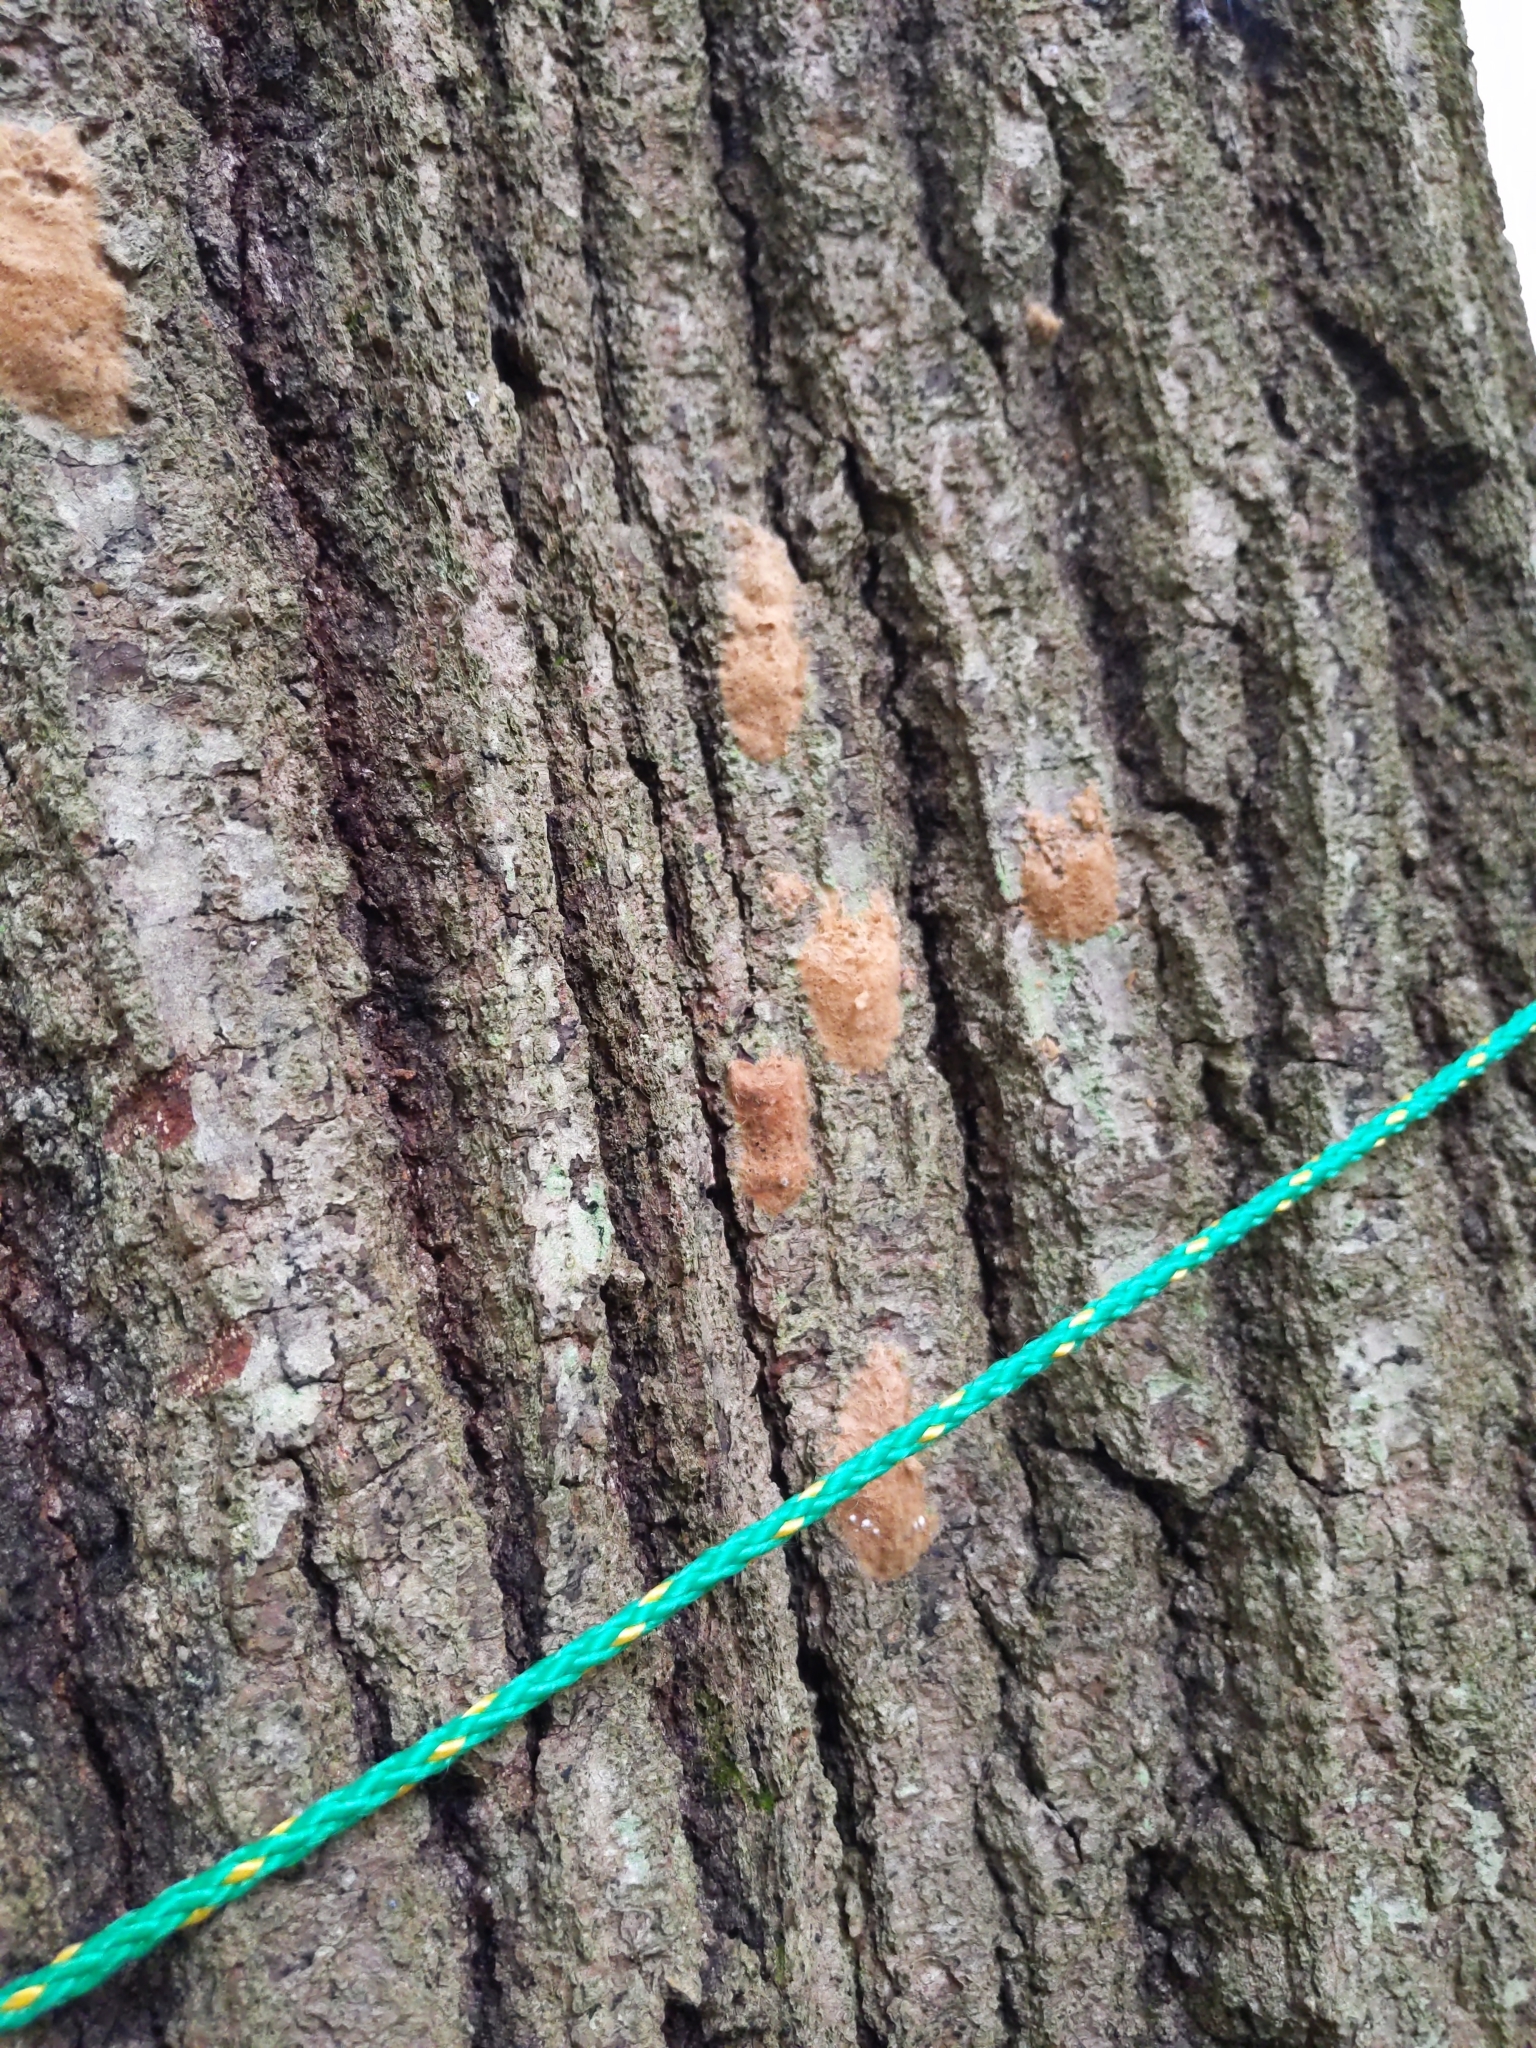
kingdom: Animalia
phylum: Arthropoda
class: Insecta
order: Lepidoptera
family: Erebidae
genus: Lymantria
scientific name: Lymantria dispar
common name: Gypsy moth
